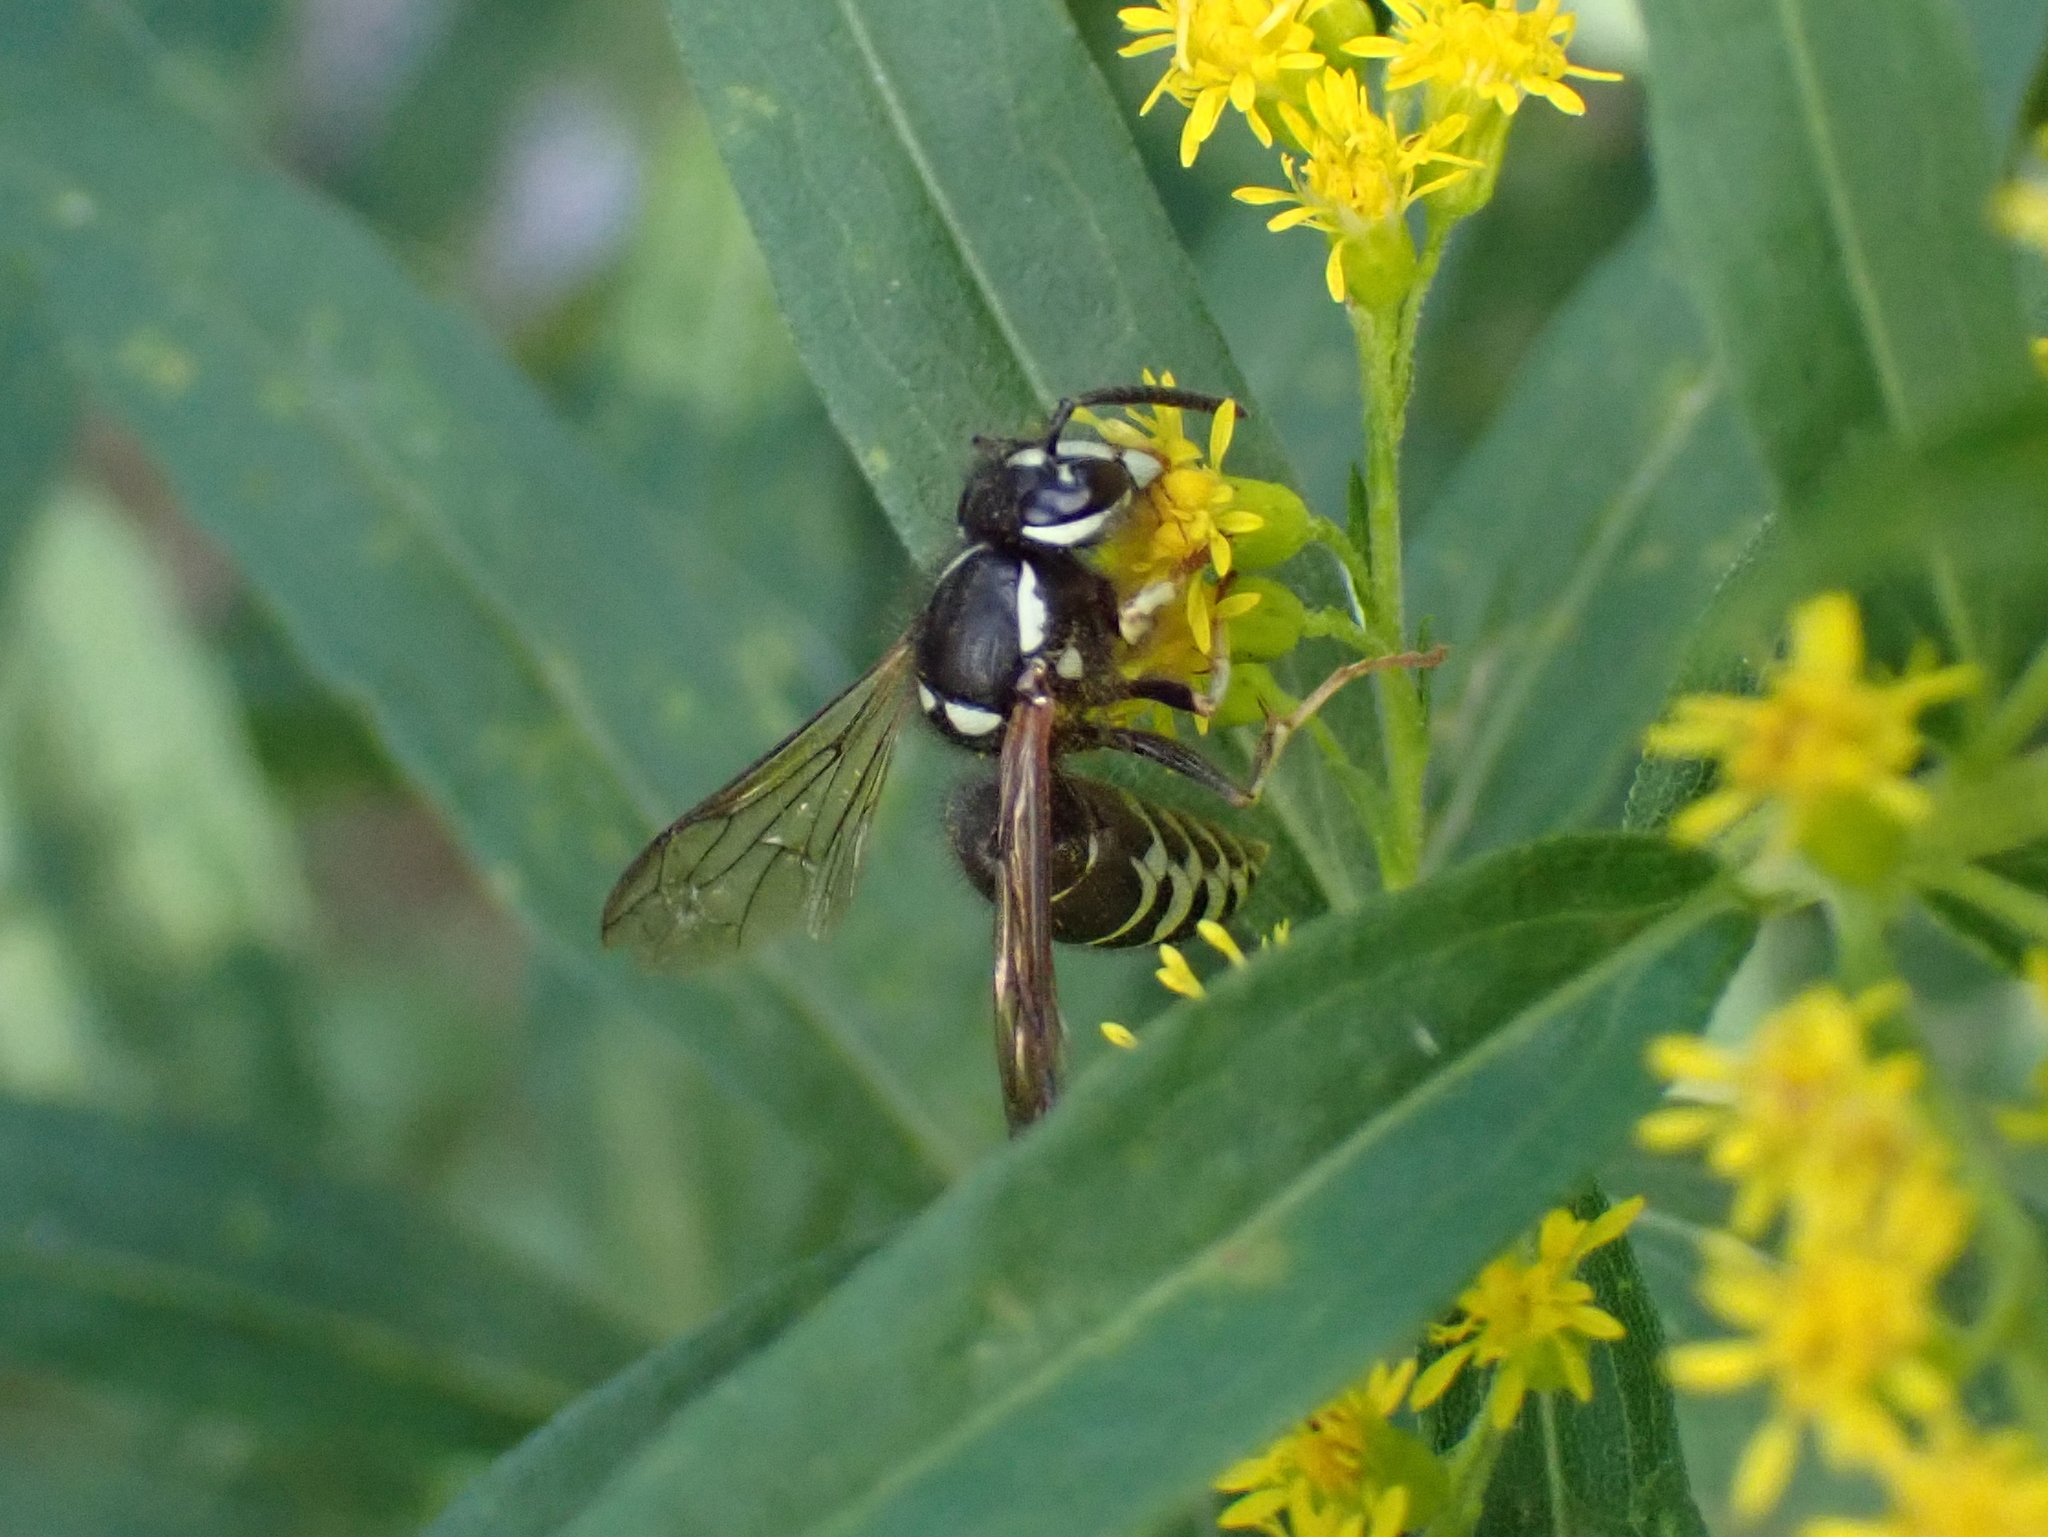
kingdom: Animalia
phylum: Arthropoda
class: Insecta
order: Hymenoptera
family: Vespidae
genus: Vespula
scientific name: Vespula consobrina
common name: Blackjacket
